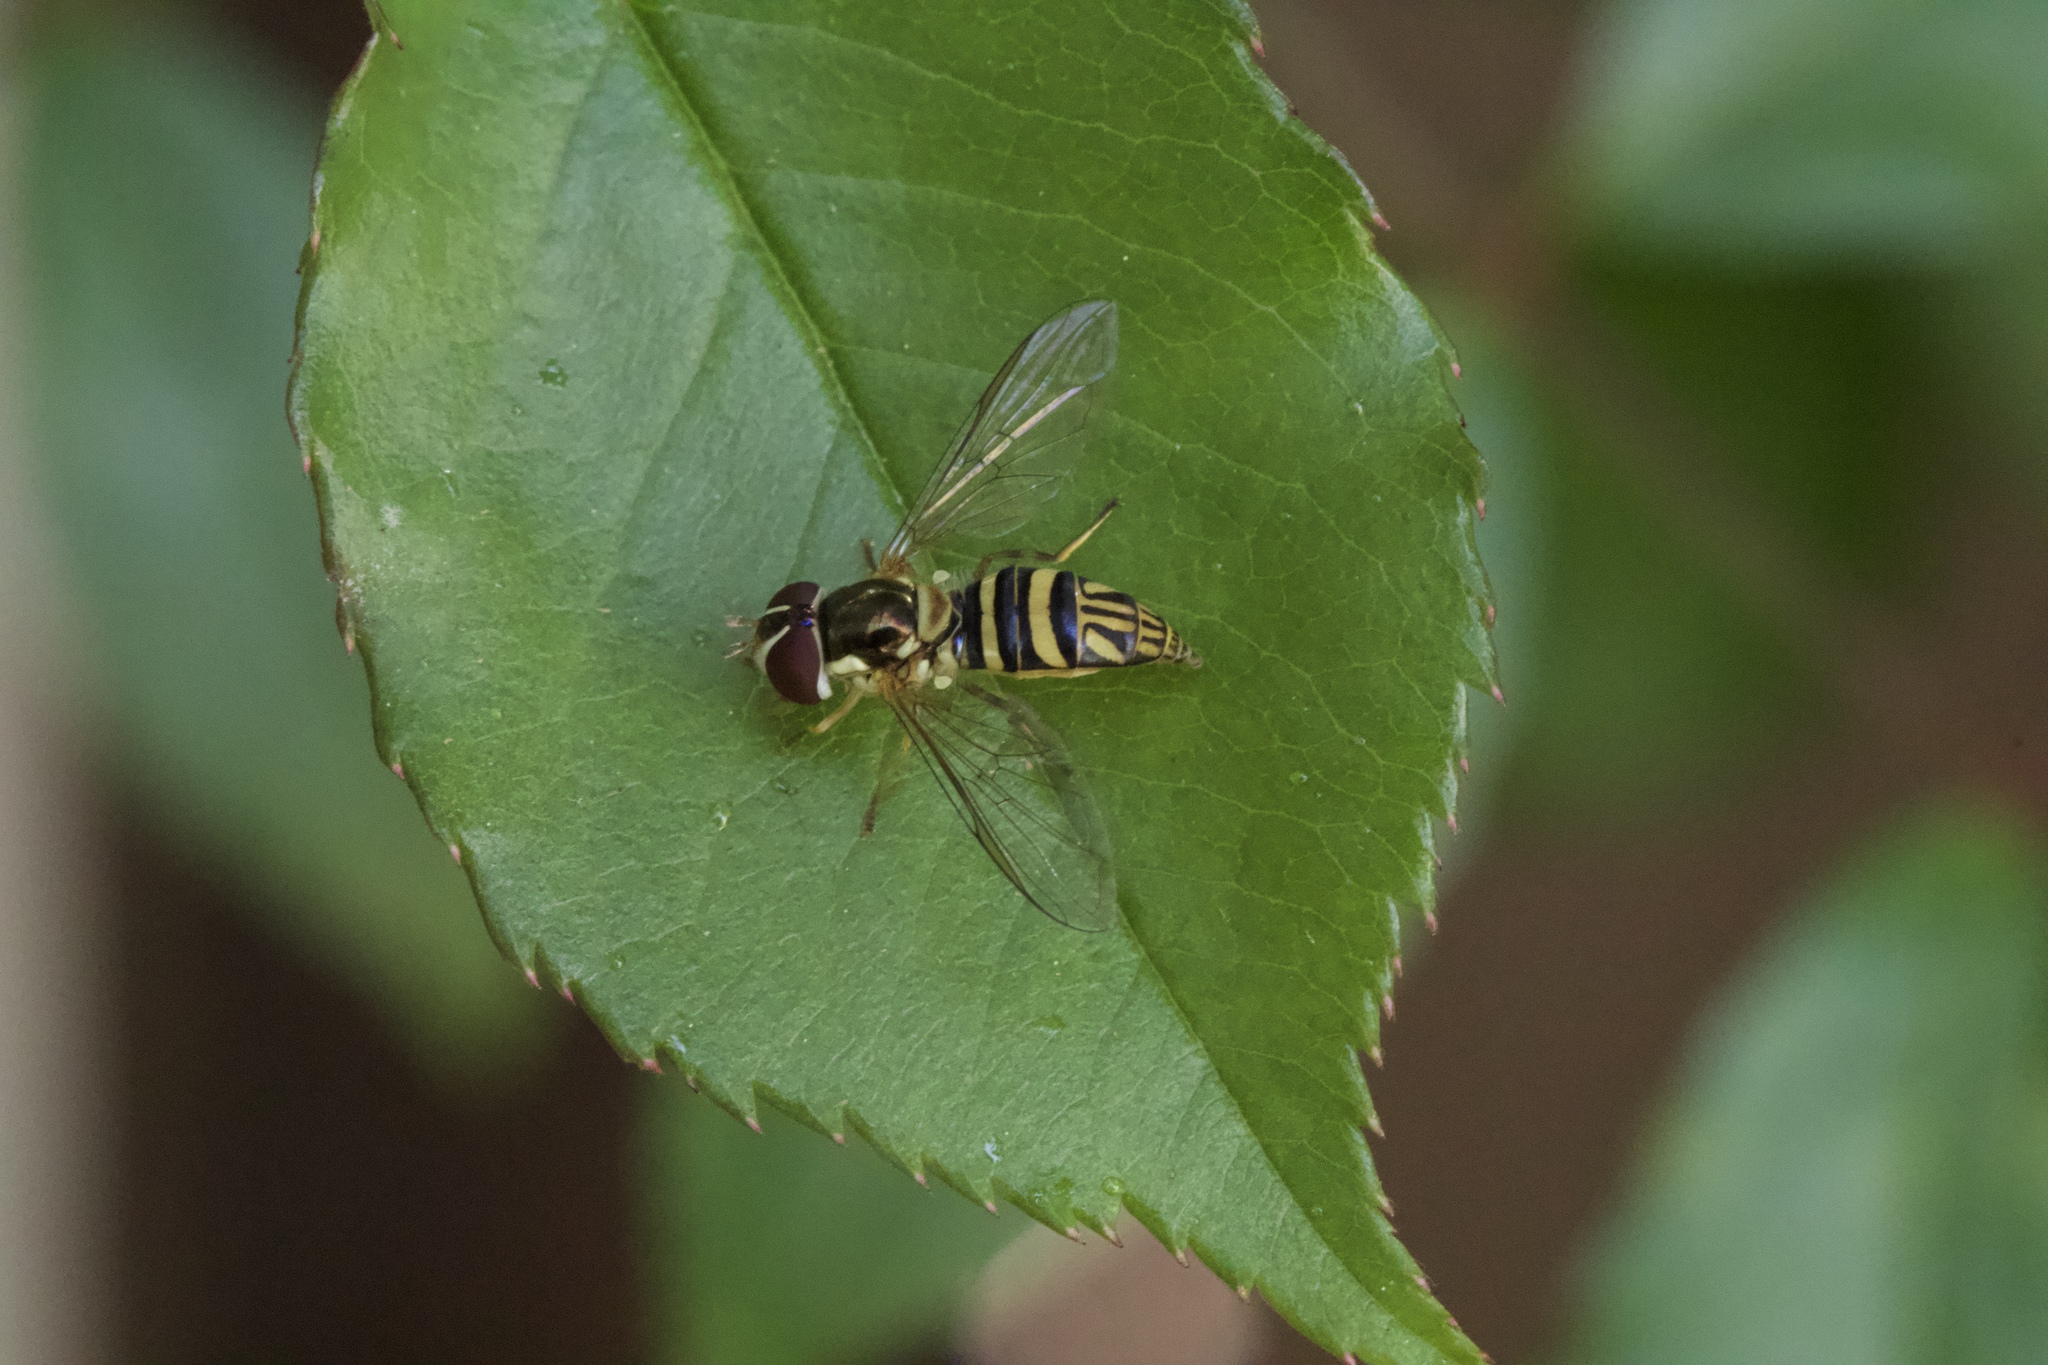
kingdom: Animalia
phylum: Arthropoda
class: Insecta
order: Diptera
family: Syrphidae
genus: Allograpta
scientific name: Allograpta obliqua
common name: Common oblique syrphid
